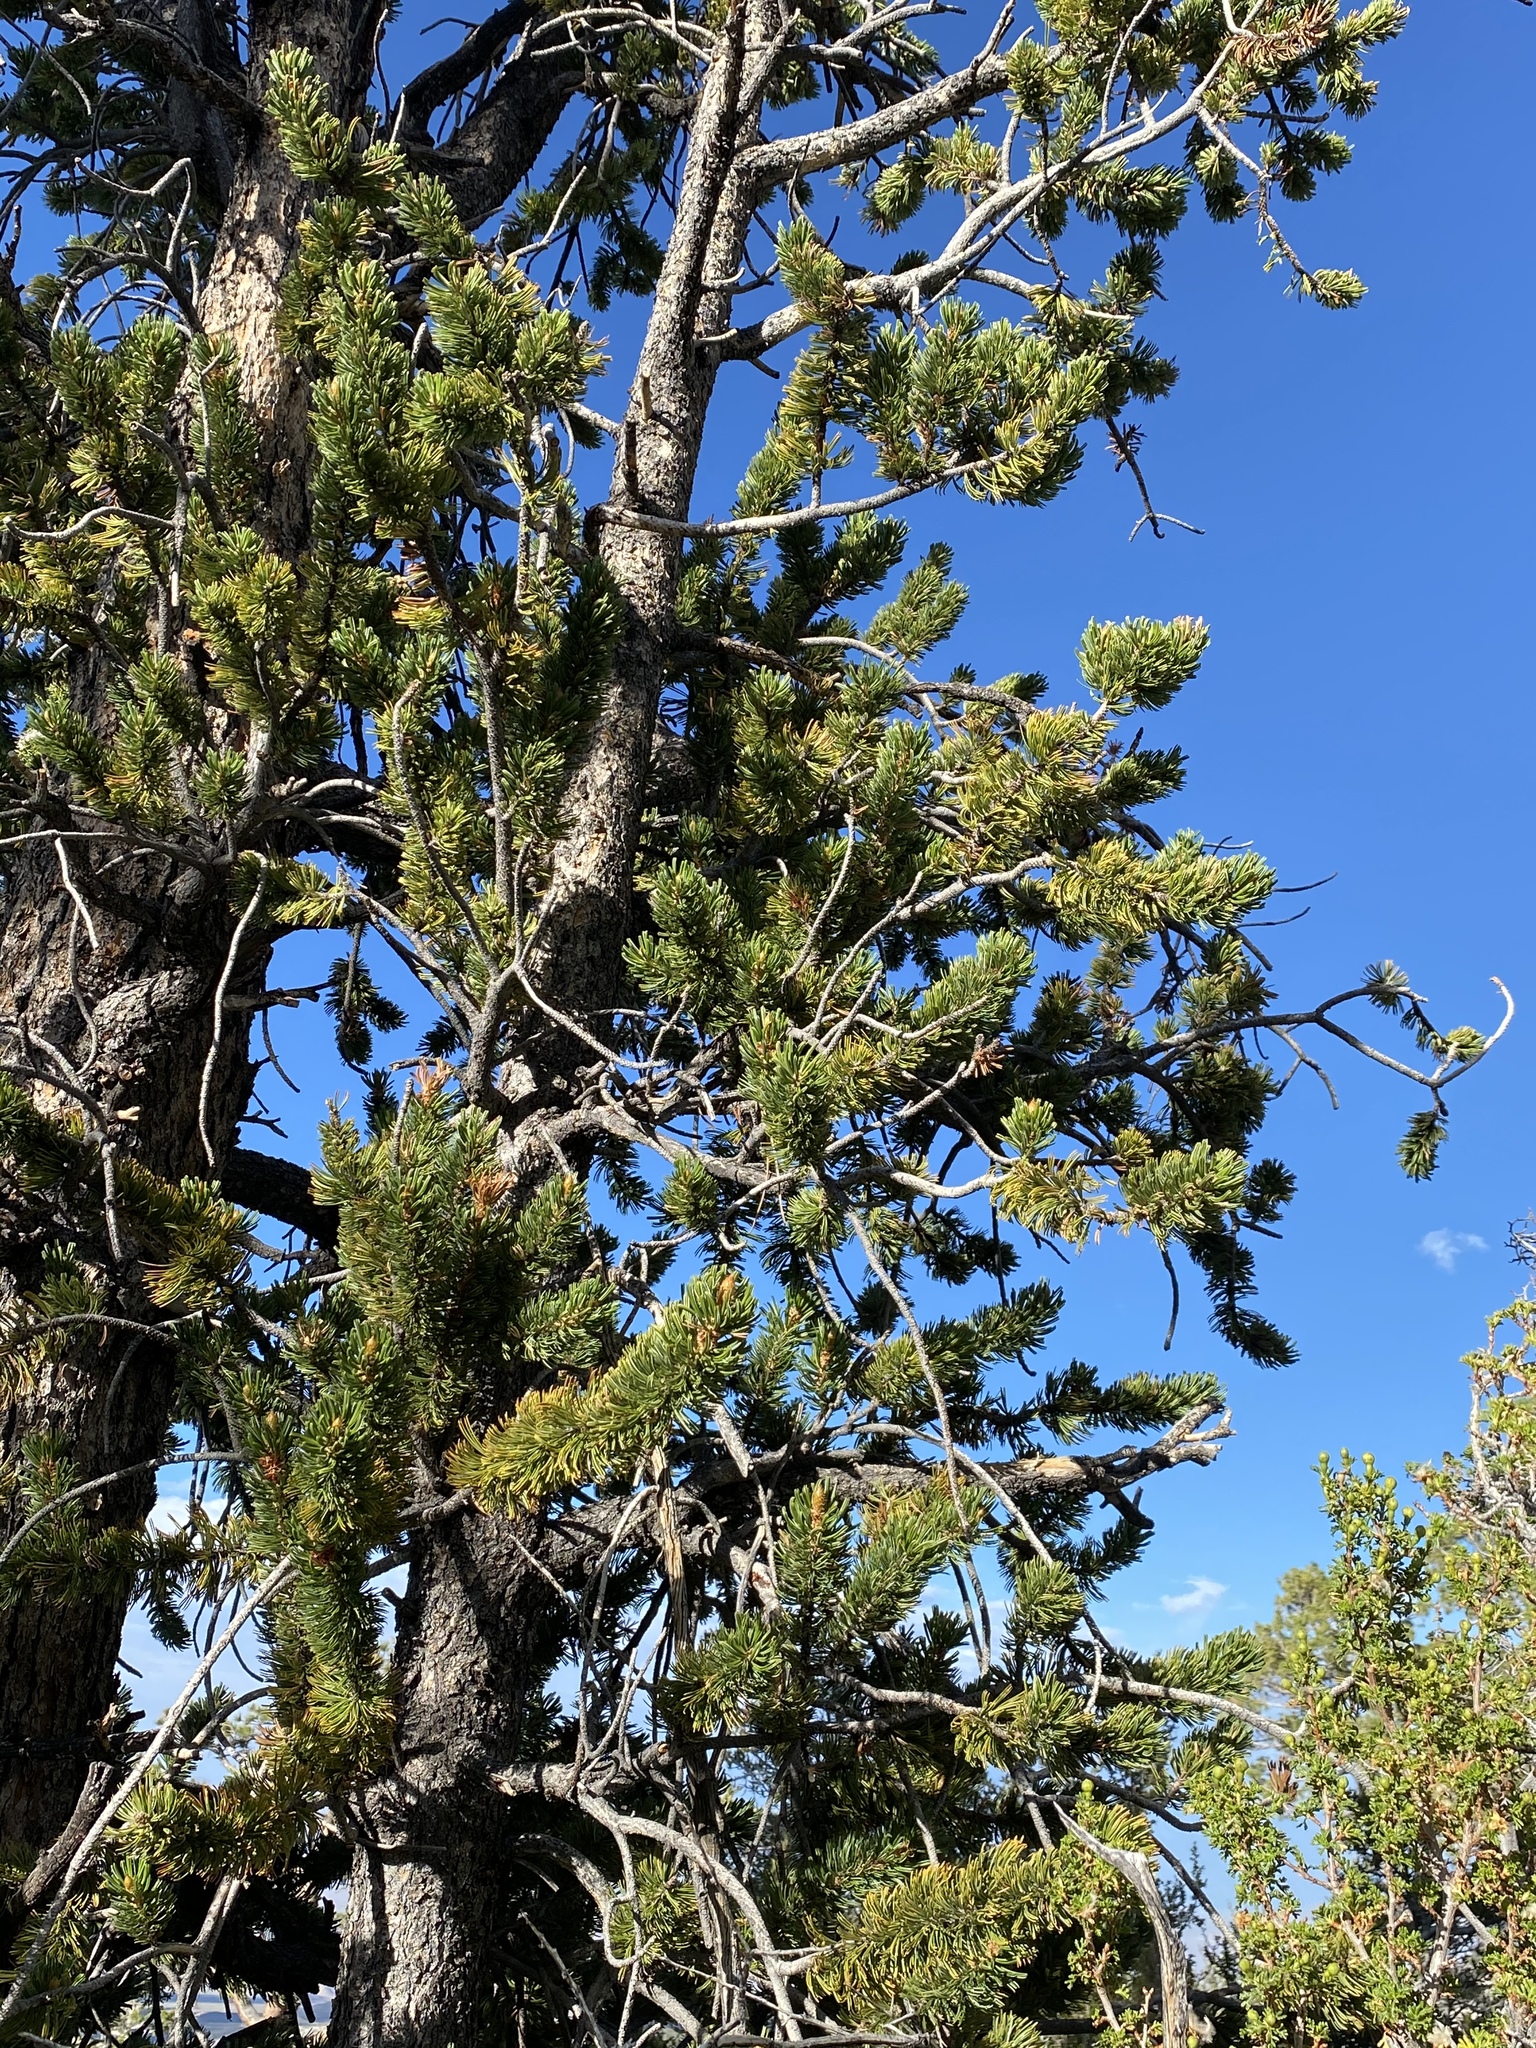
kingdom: Plantae
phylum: Tracheophyta
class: Pinopsida
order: Pinales
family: Pinaceae
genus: Pinus
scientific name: Pinus longaeva
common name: Intermountain bristlecone pine
